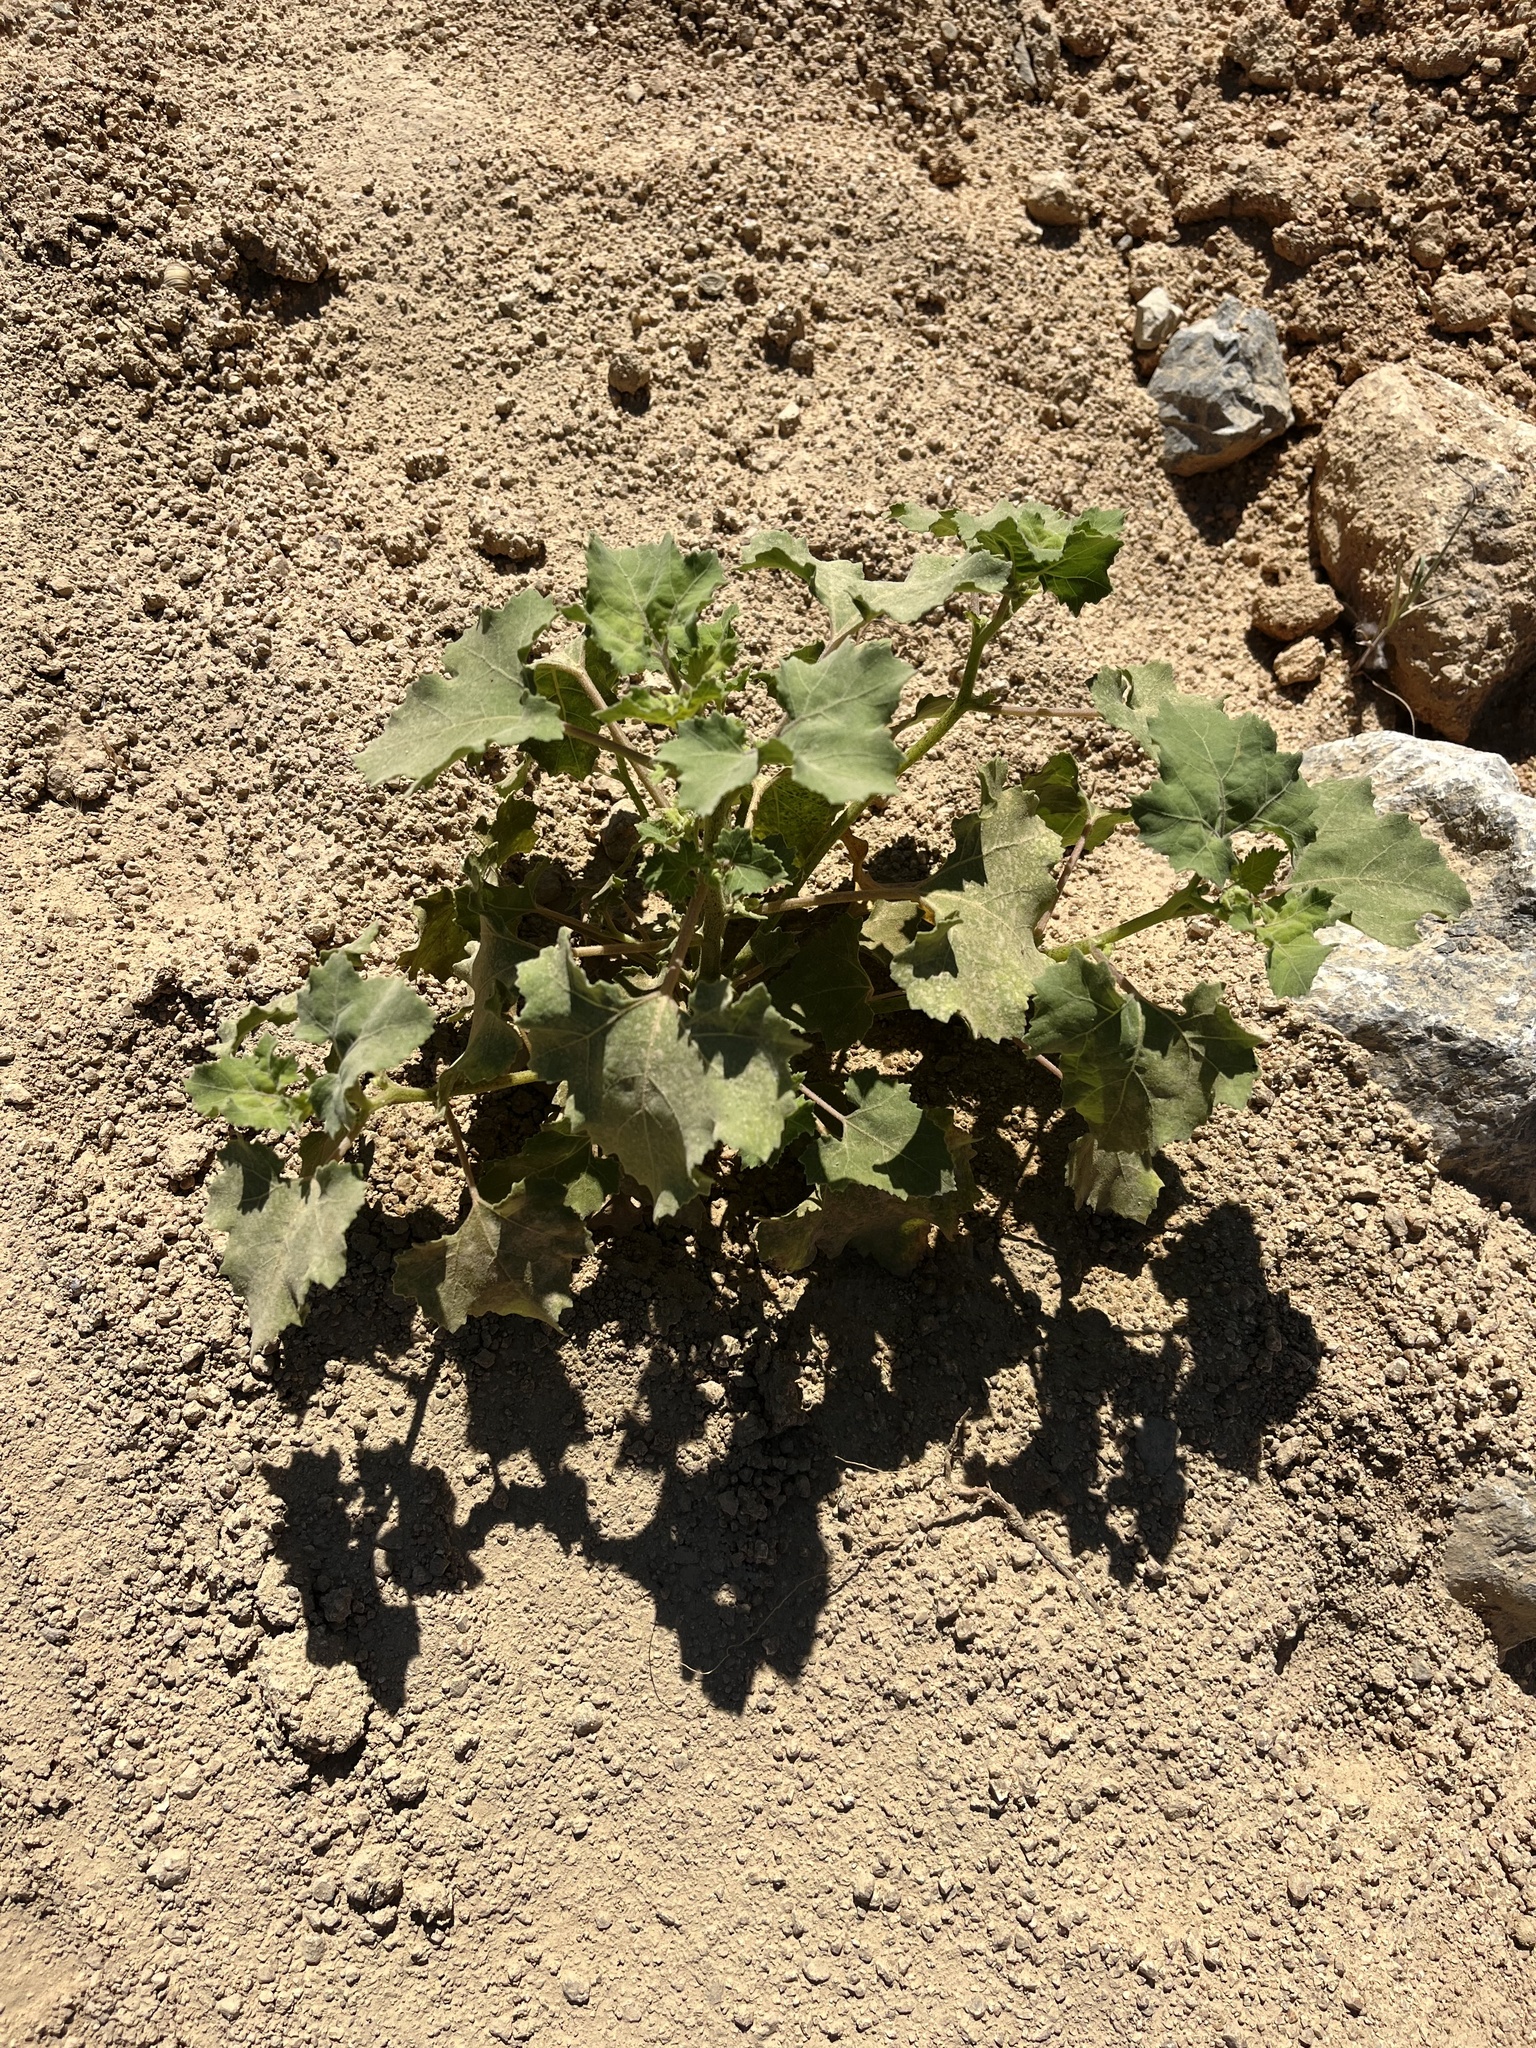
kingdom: Plantae
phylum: Tracheophyta
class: Magnoliopsida
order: Asterales
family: Asteraceae
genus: Xanthium
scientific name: Xanthium strumarium
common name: Rough cocklebur
